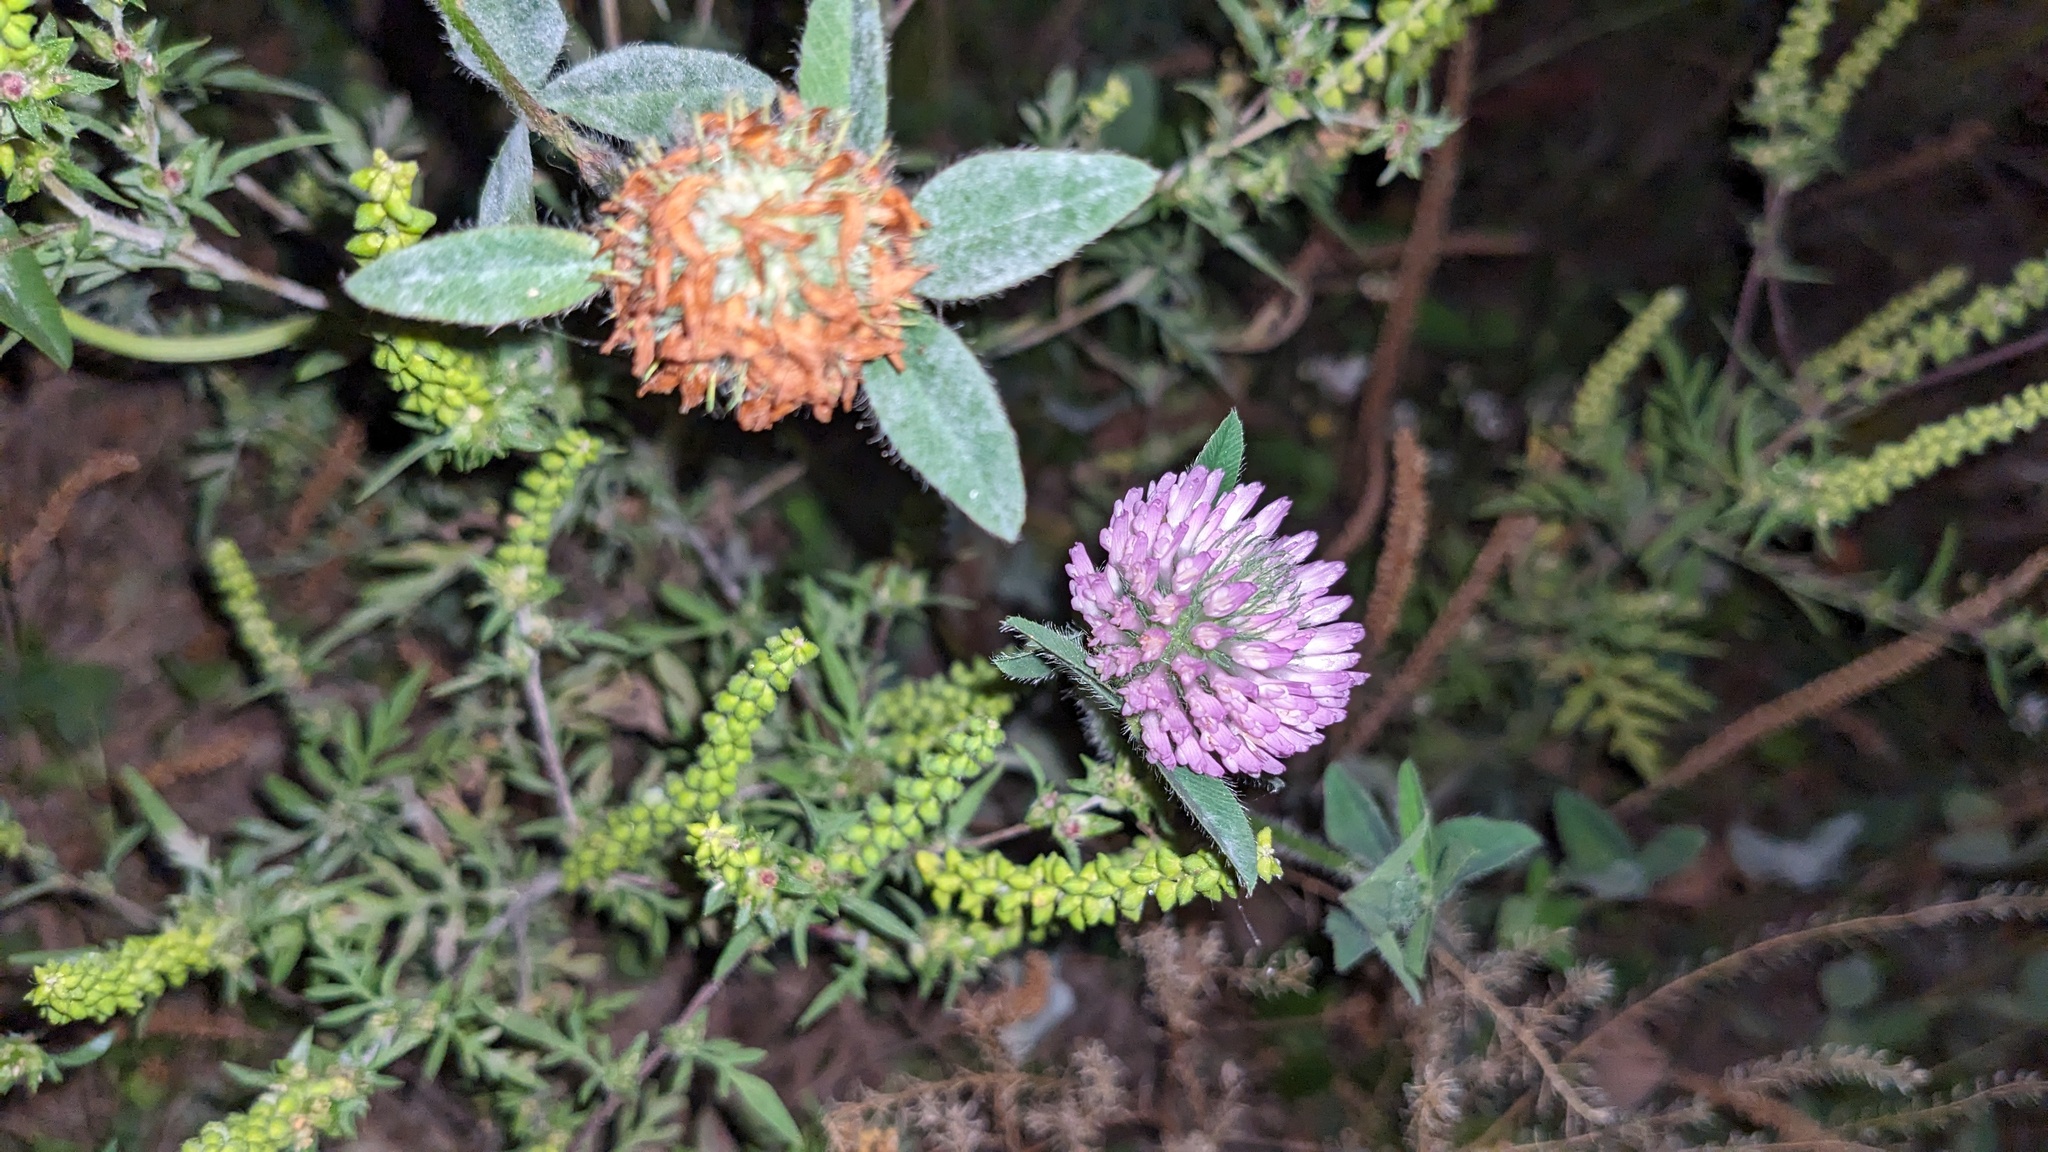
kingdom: Plantae
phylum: Tracheophyta
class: Magnoliopsida
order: Fabales
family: Fabaceae
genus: Trifolium
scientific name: Trifolium pratense
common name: Red clover
